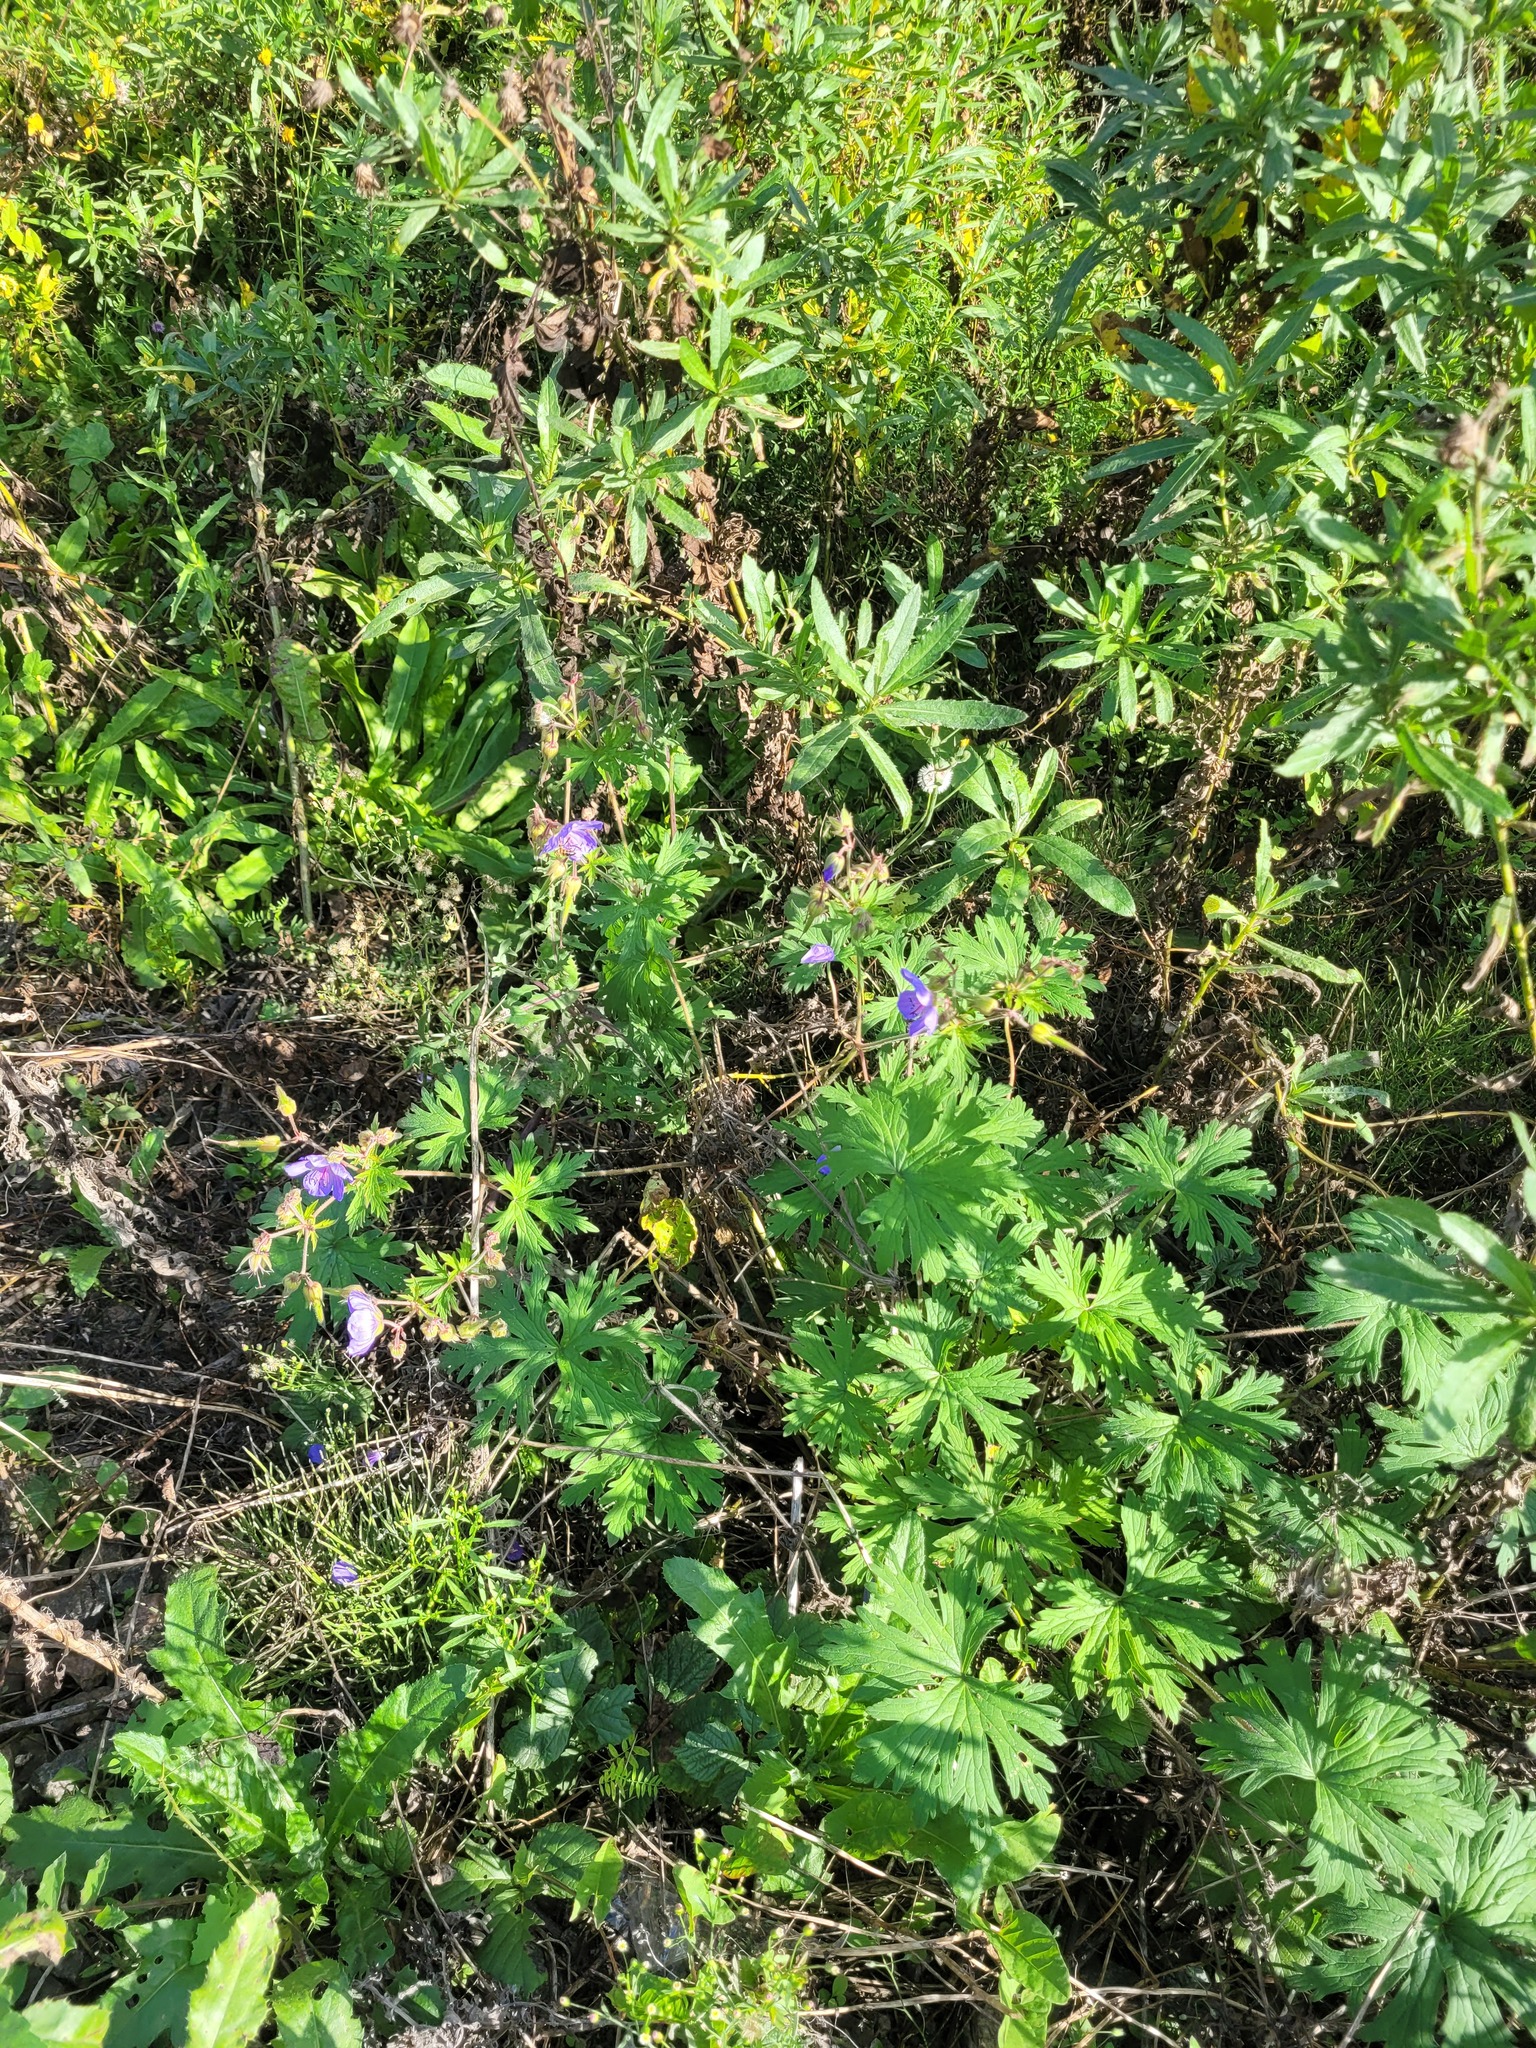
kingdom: Plantae
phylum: Tracheophyta
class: Magnoliopsida
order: Geraniales
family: Geraniaceae
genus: Geranium
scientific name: Geranium pratense
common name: Meadow crane's-bill
